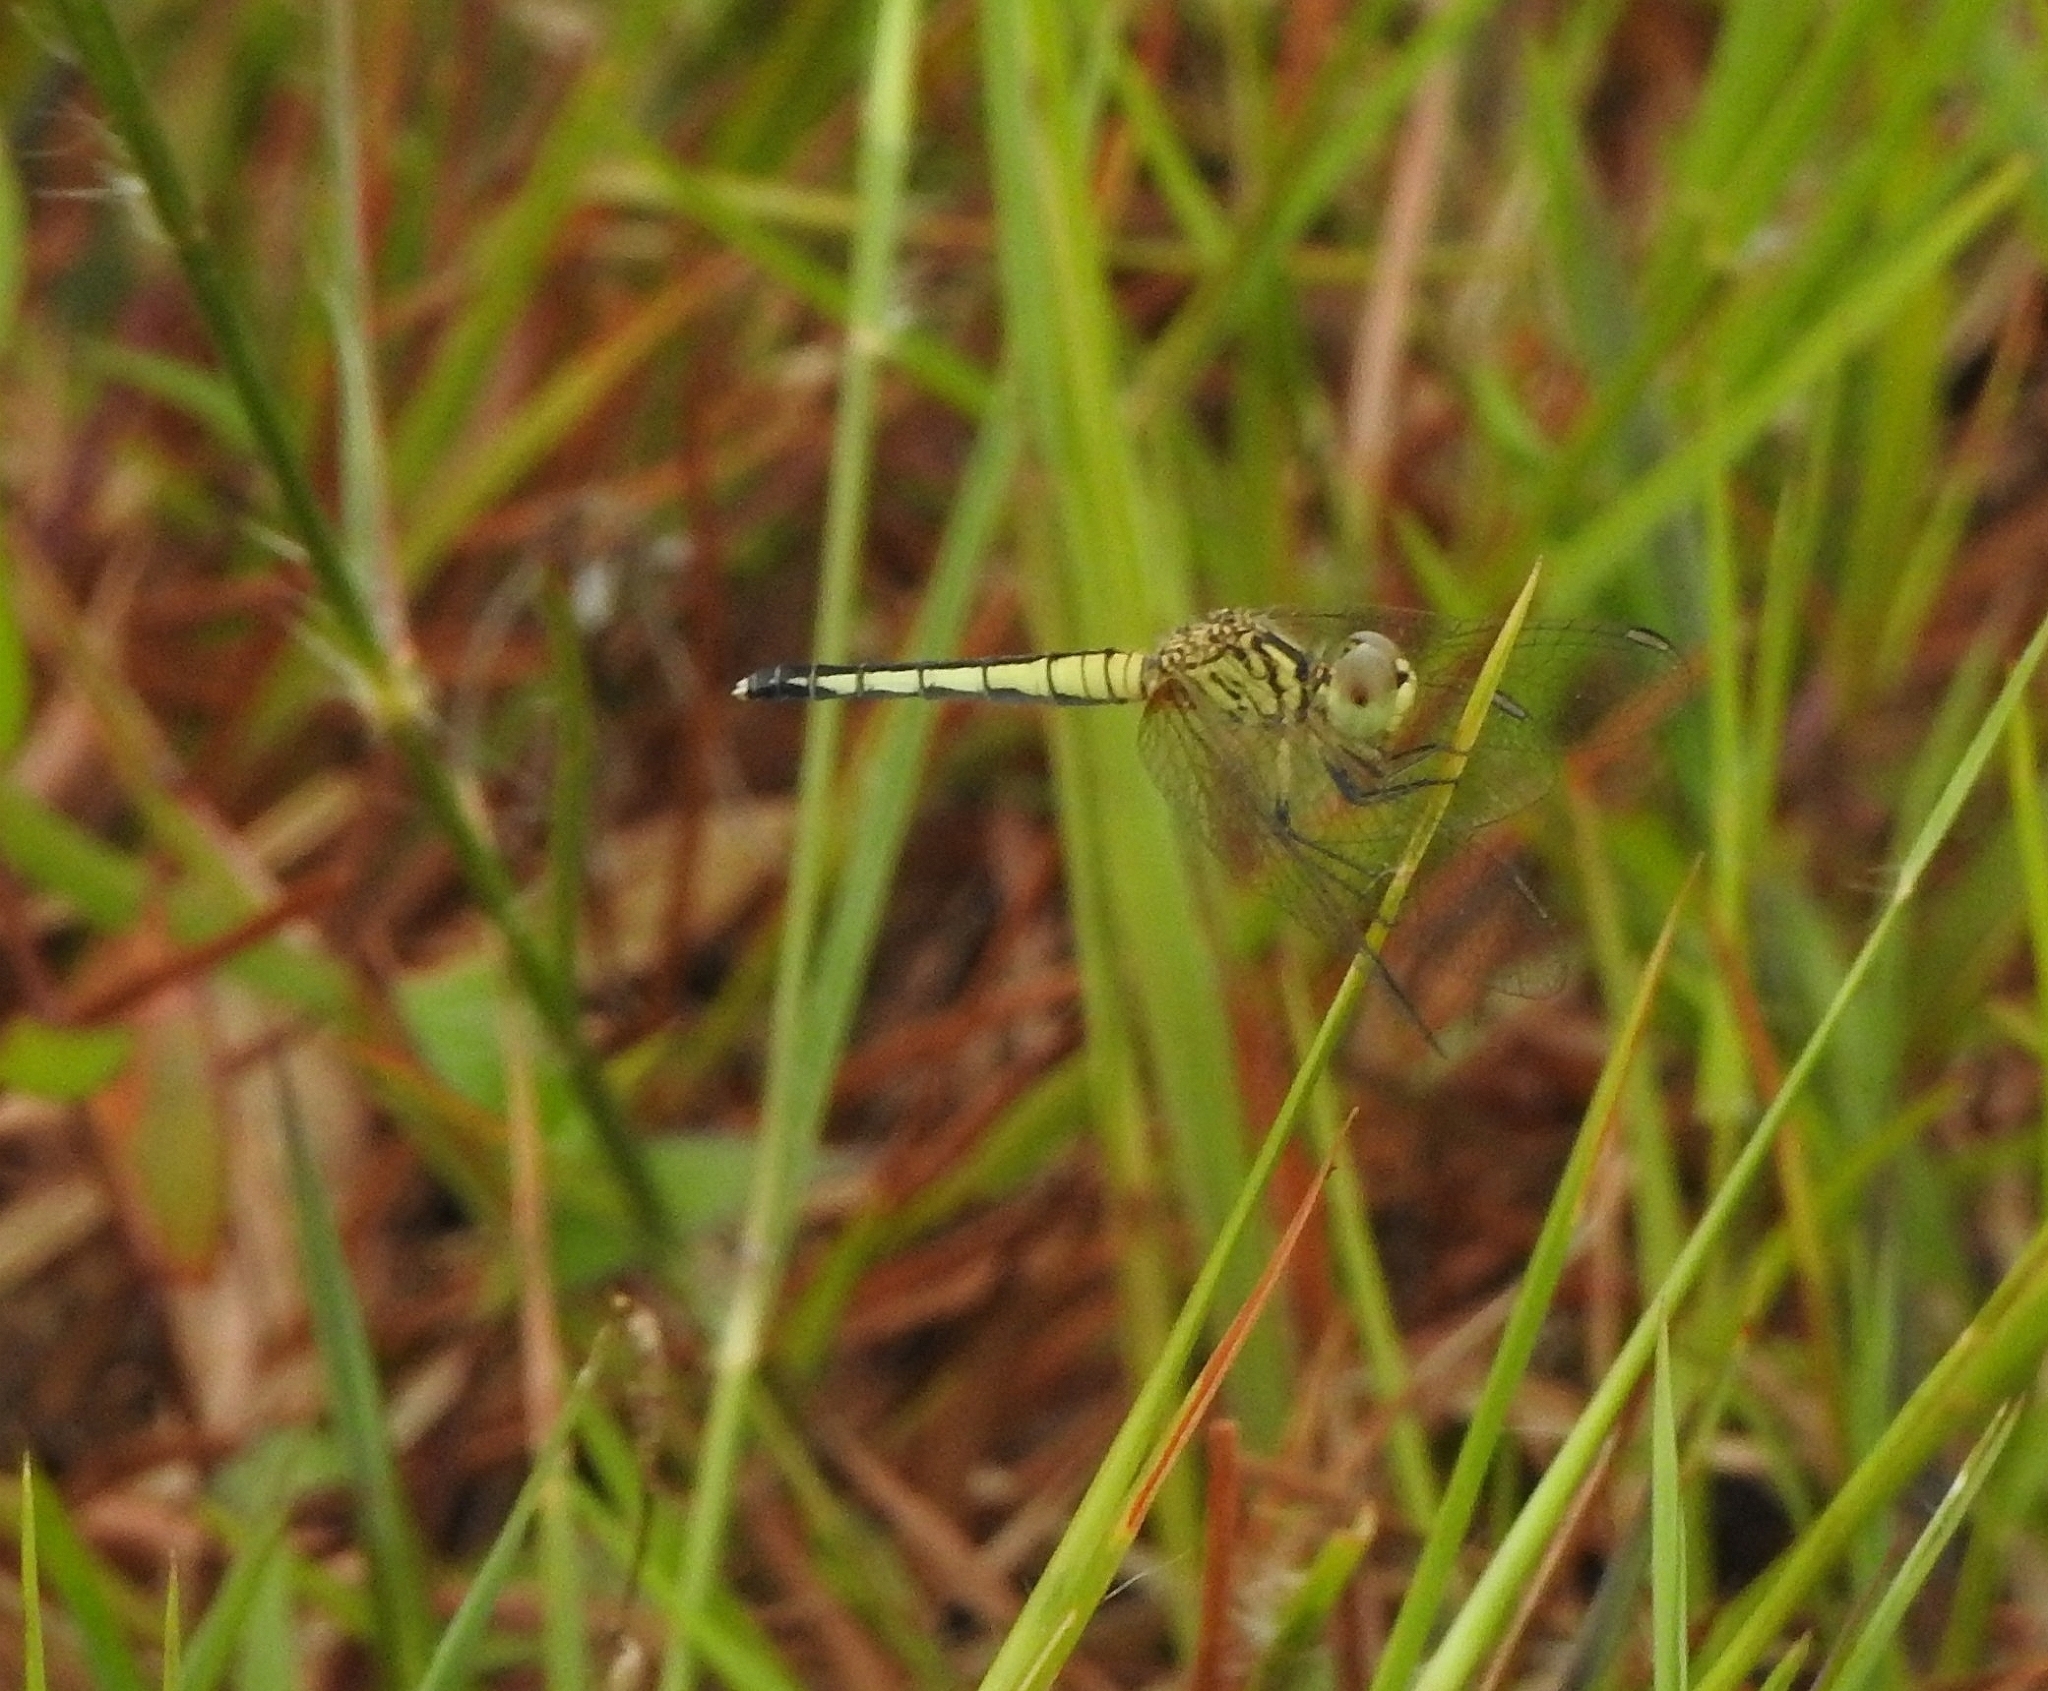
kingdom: Animalia
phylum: Arthropoda
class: Insecta
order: Odonata
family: Libellulidae
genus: Diplacodes
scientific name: Diplacodes nebulosa
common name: Black-tipped percher
